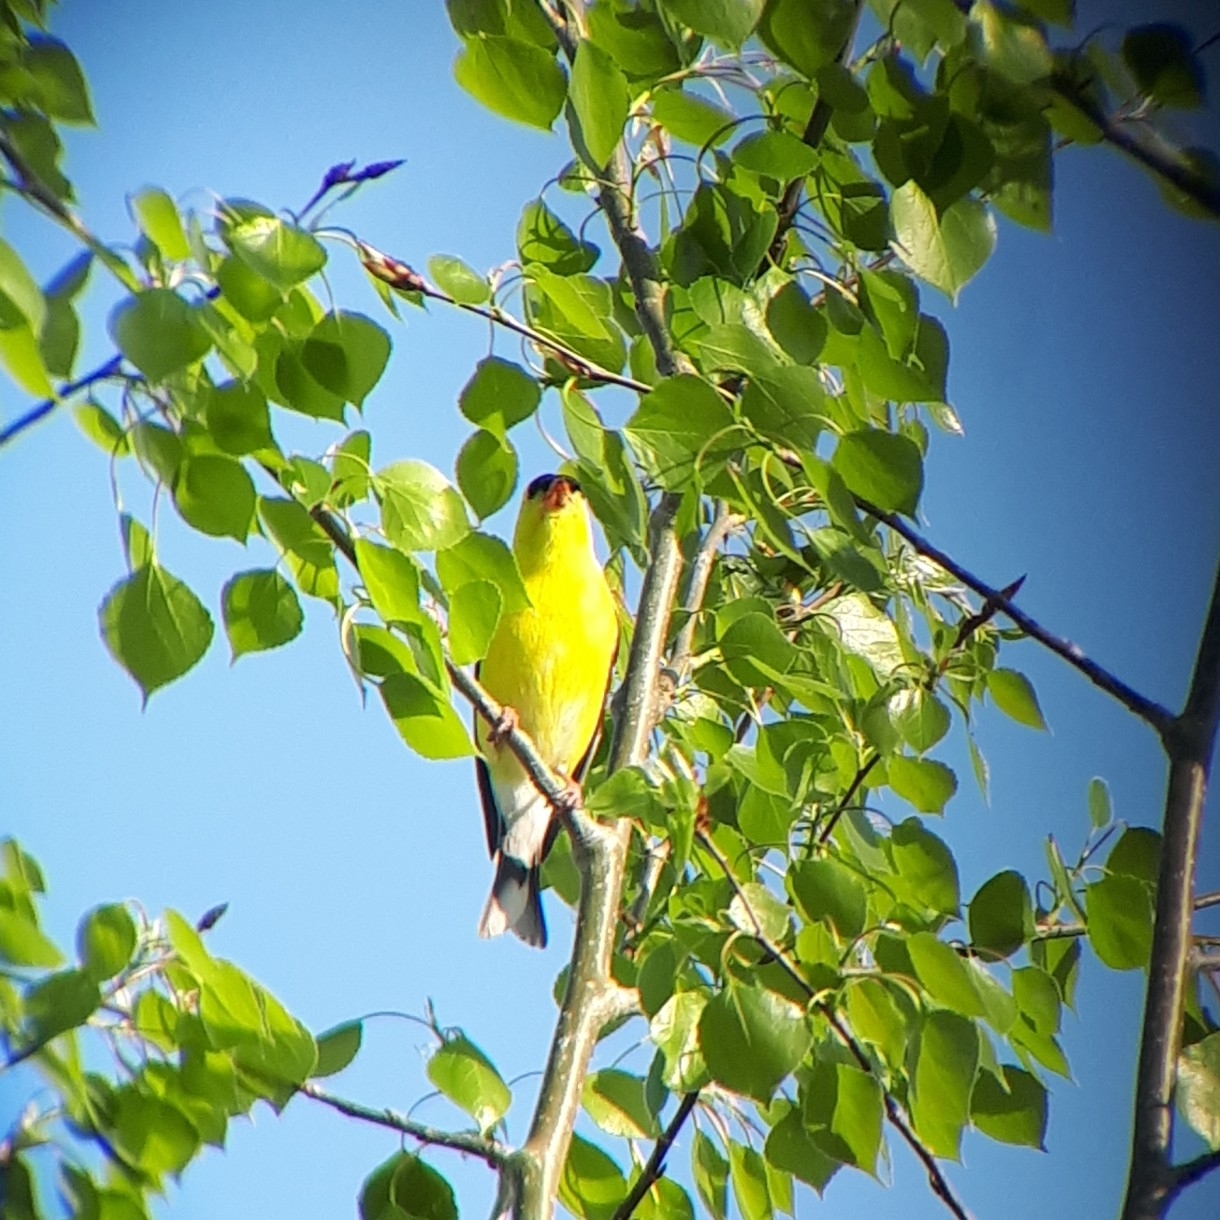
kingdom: Animalia
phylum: Chordata
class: Aves
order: Passeriformes
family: Fringillidae
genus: Spinus
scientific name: Spinus tristis
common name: American goldfinch
